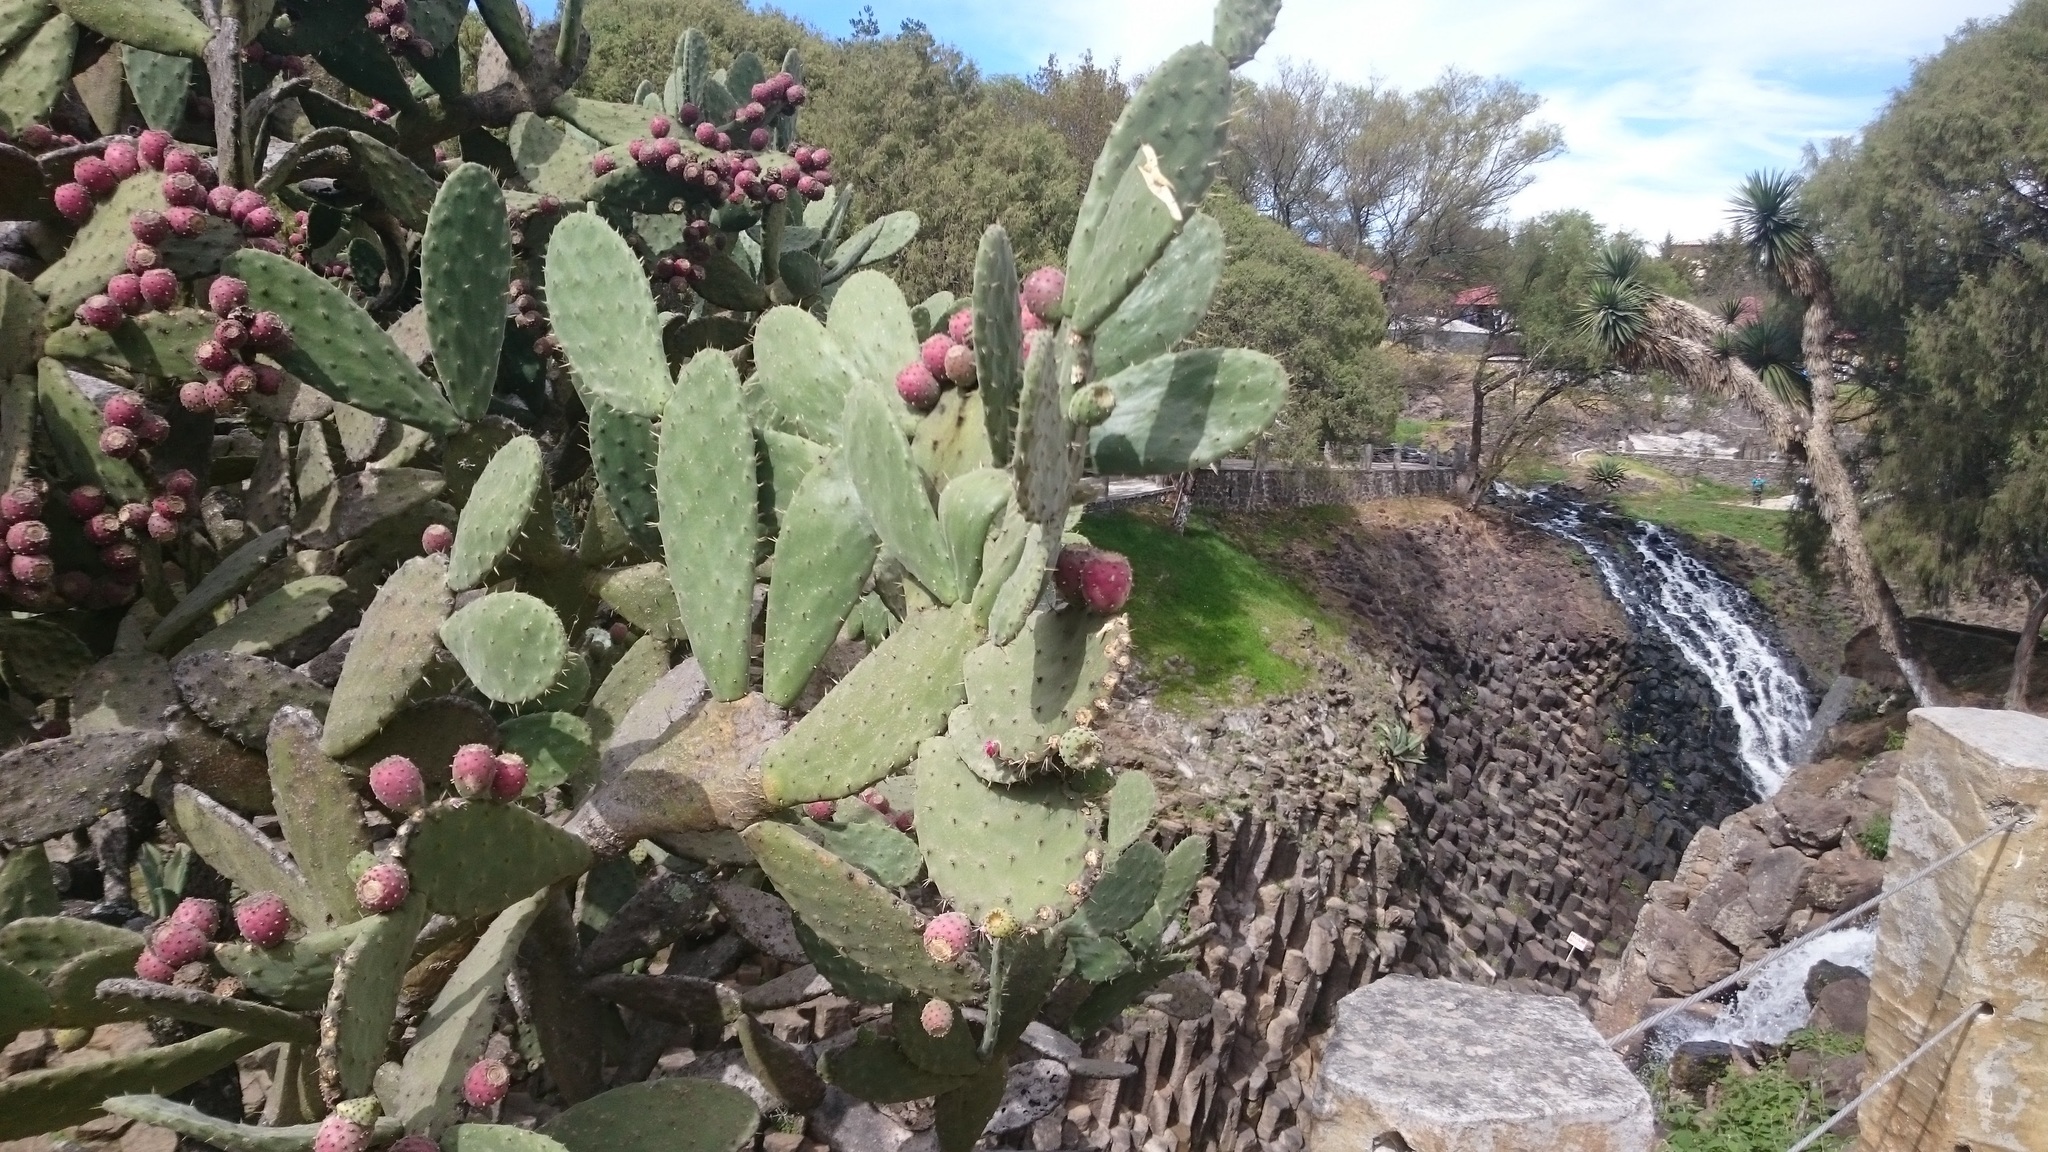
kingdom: Plantae
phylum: Tracheophyta
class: Magnoliopsida
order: Caryophyllales
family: Cactaceae
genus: Opuntia
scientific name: Opuntia tomentosa
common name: Woollyjoint pricklypear
